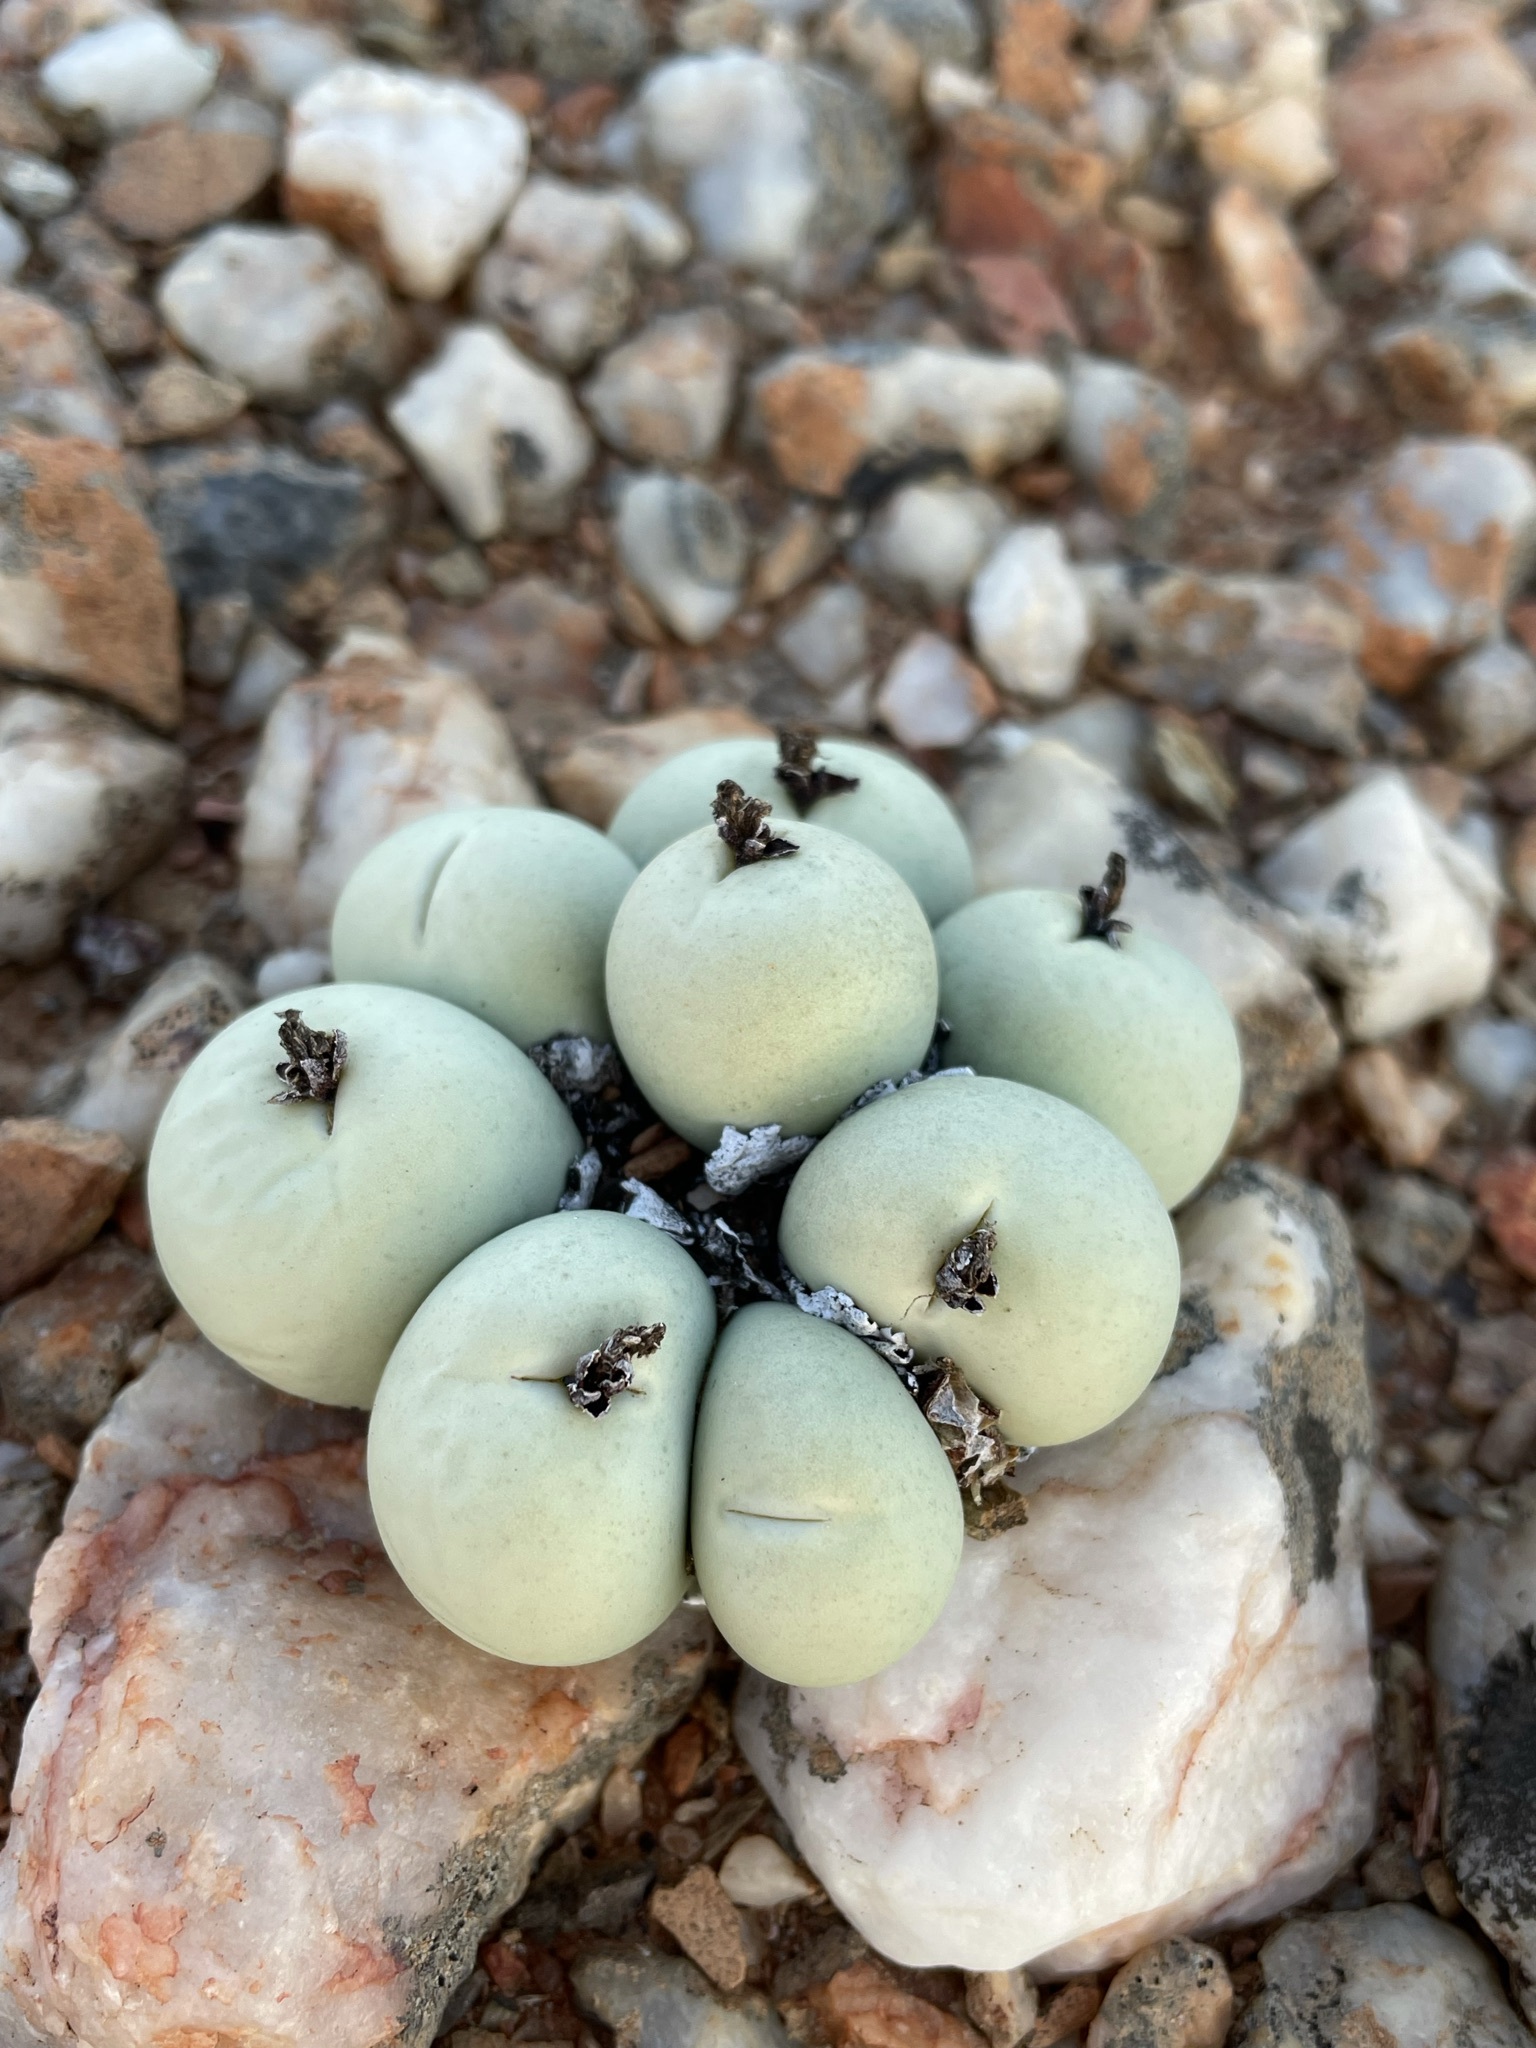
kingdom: Plantae
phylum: Tracheophyta
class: Magnoliopsida
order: Caryophyllales
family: Aizoaceae
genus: Conophytum
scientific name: Conophytum calculus
